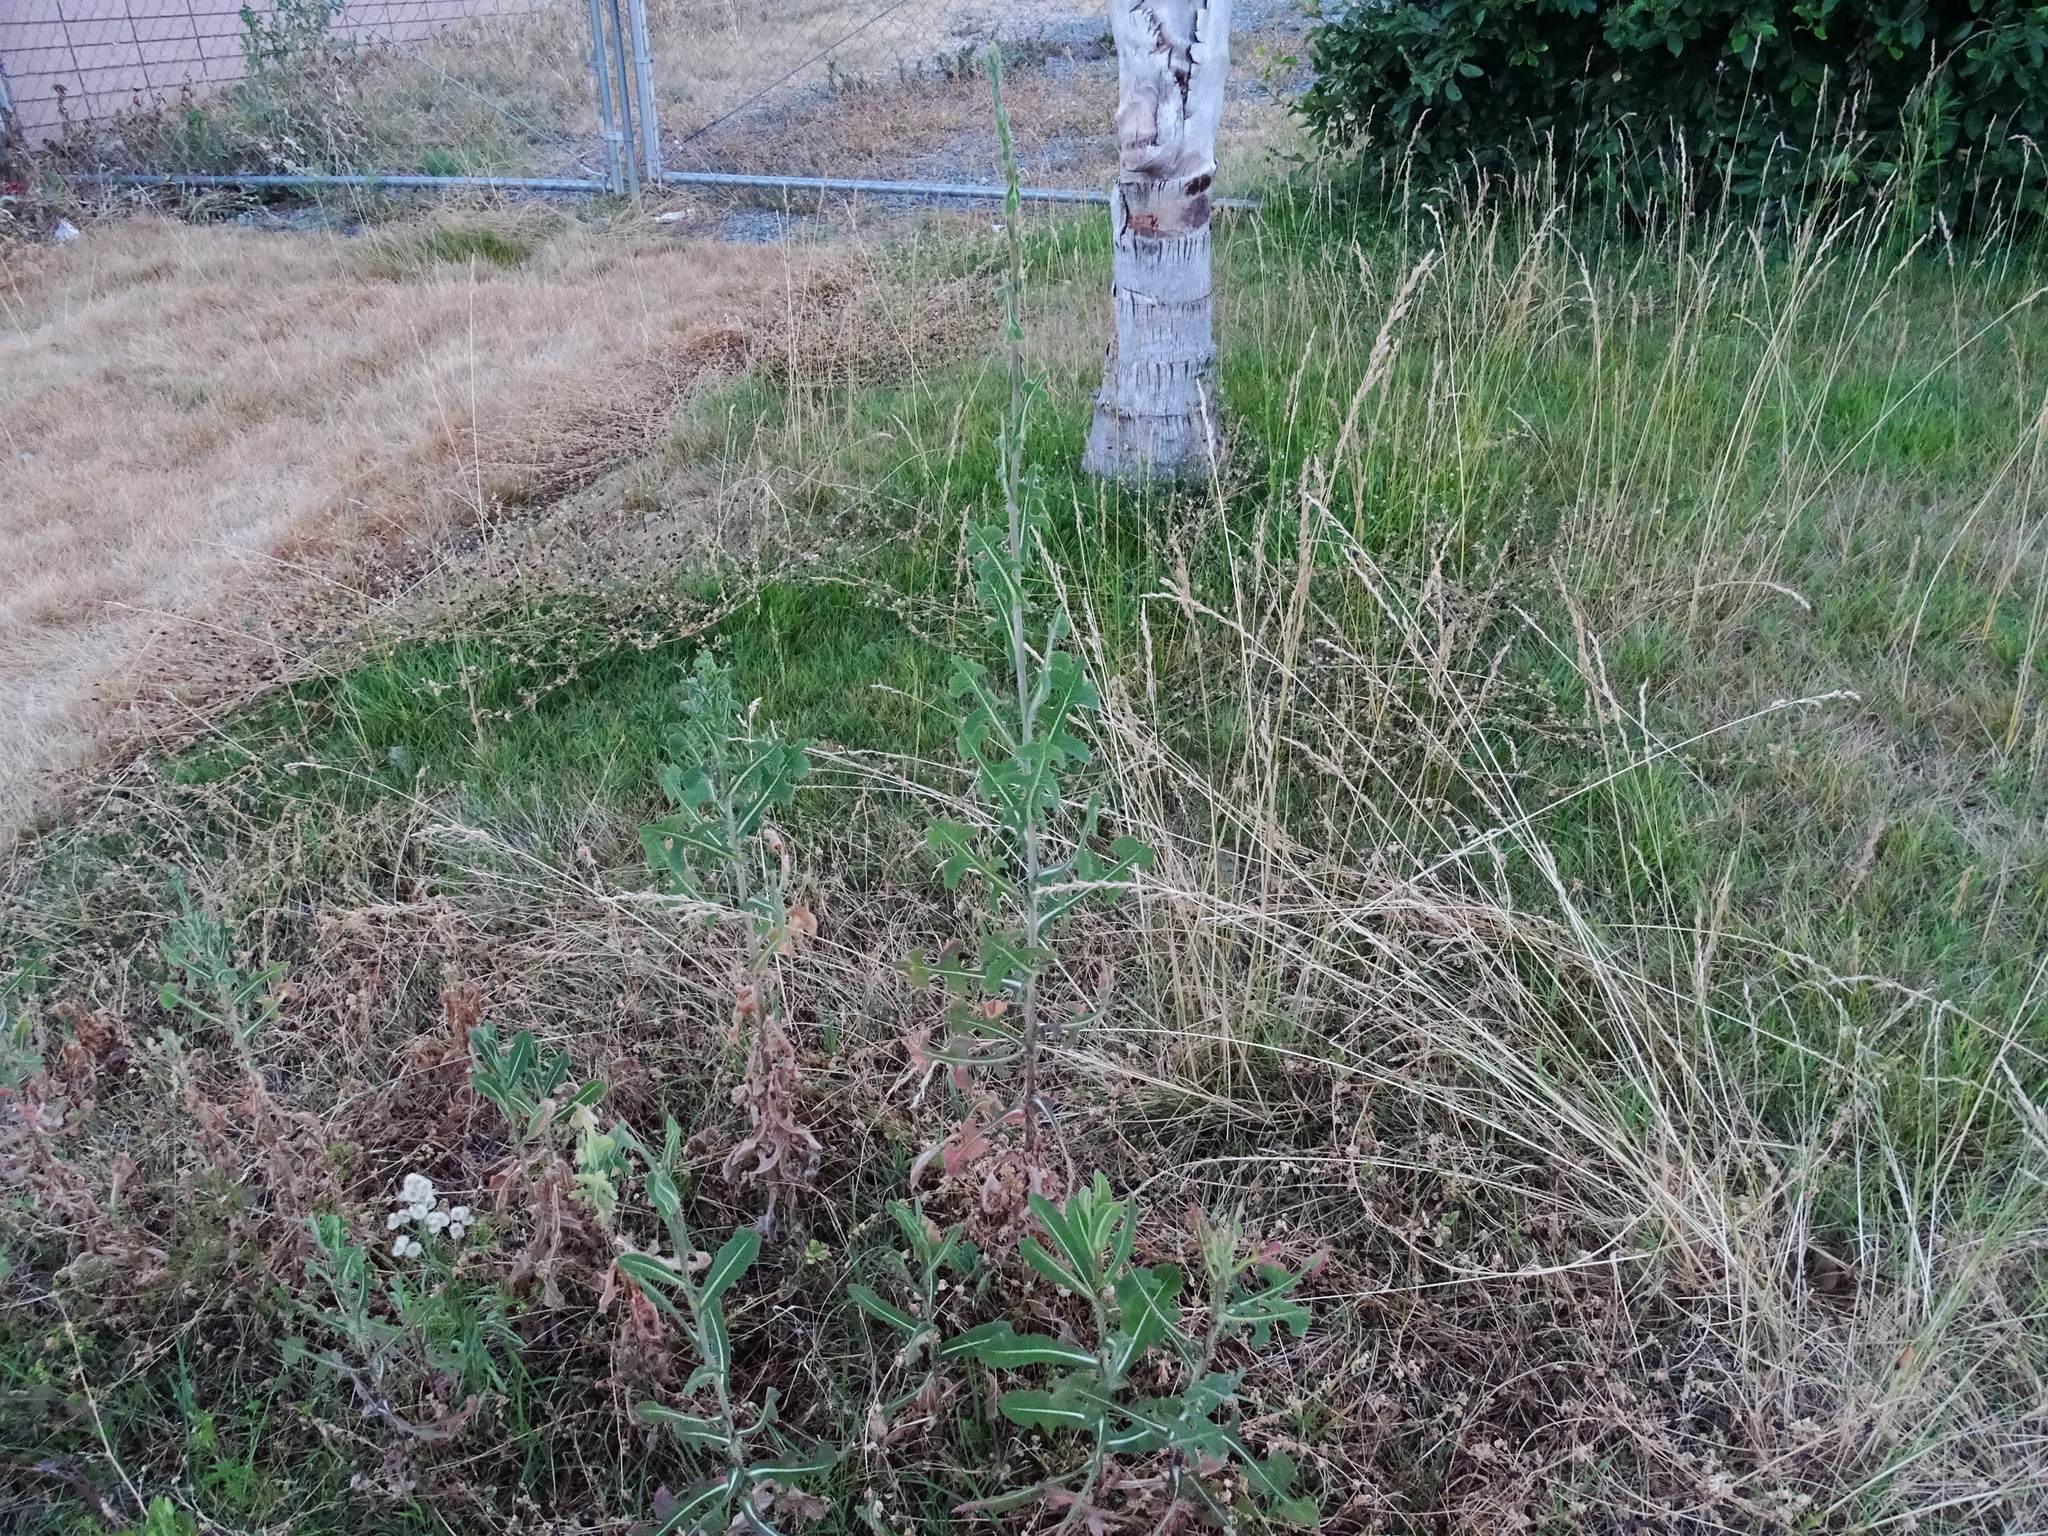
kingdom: Plantae
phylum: Tracheophyta
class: Magnoliopsida
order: Asterales
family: Asteraceae
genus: Lactuca
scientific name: Lactuca serriola
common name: Prickly lettuce
